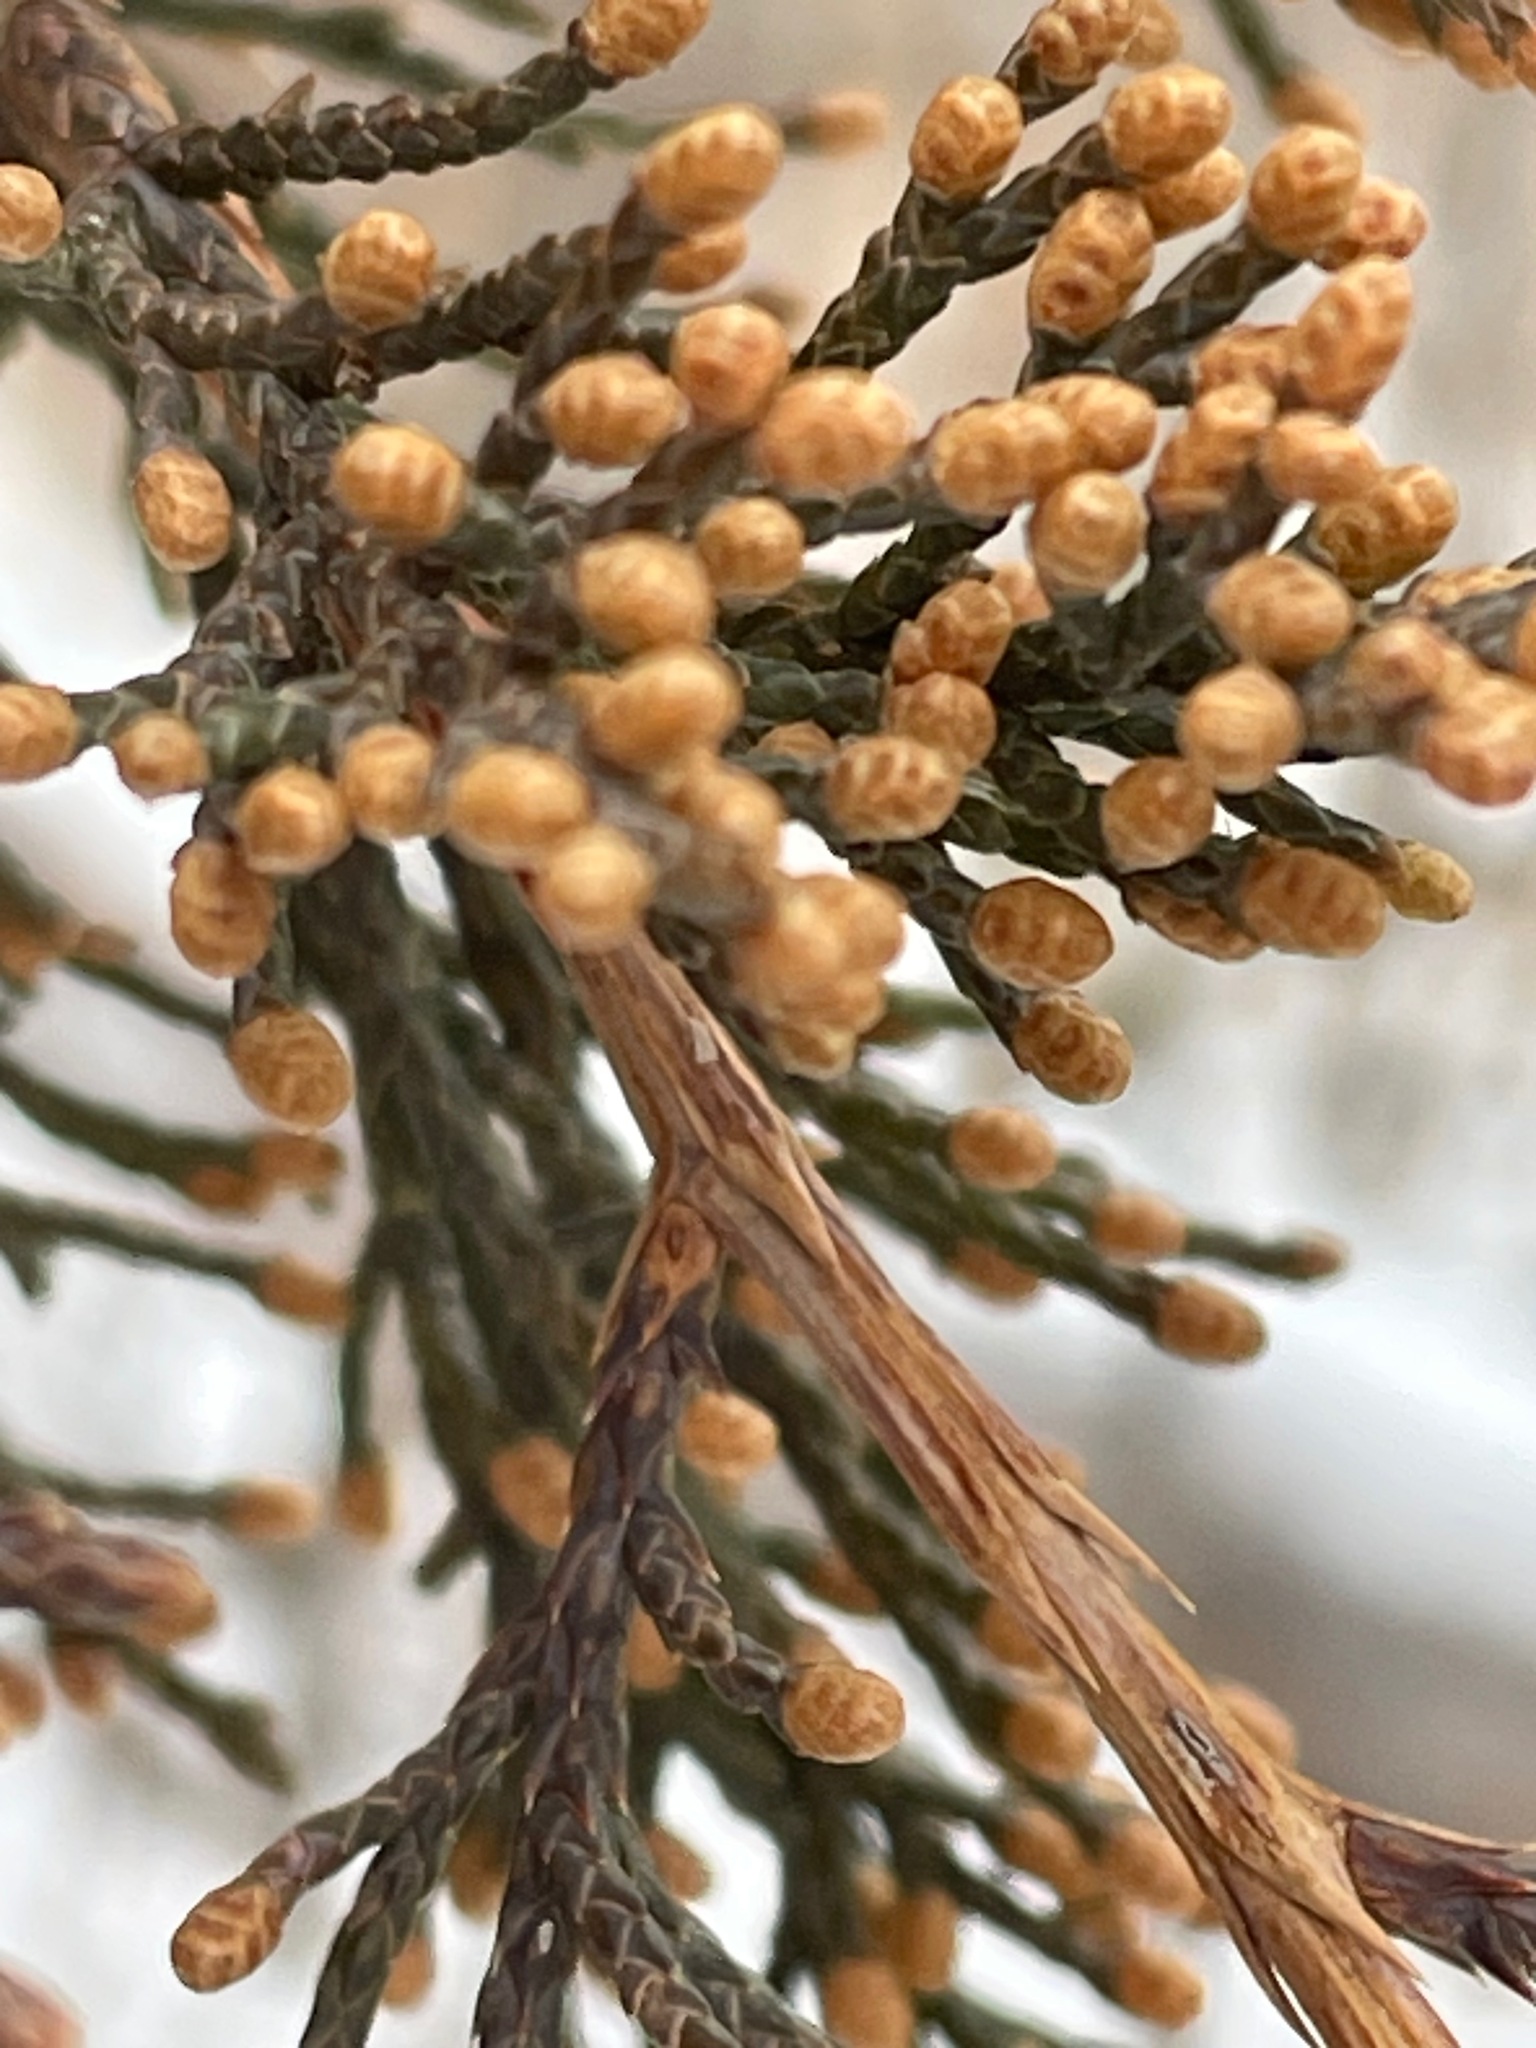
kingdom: Plantae
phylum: Tracheophyta
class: Pinopsida
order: Pinales
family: Cupressaceae
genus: Juniperus
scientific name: Juniperus virginiana
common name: Red juniper
